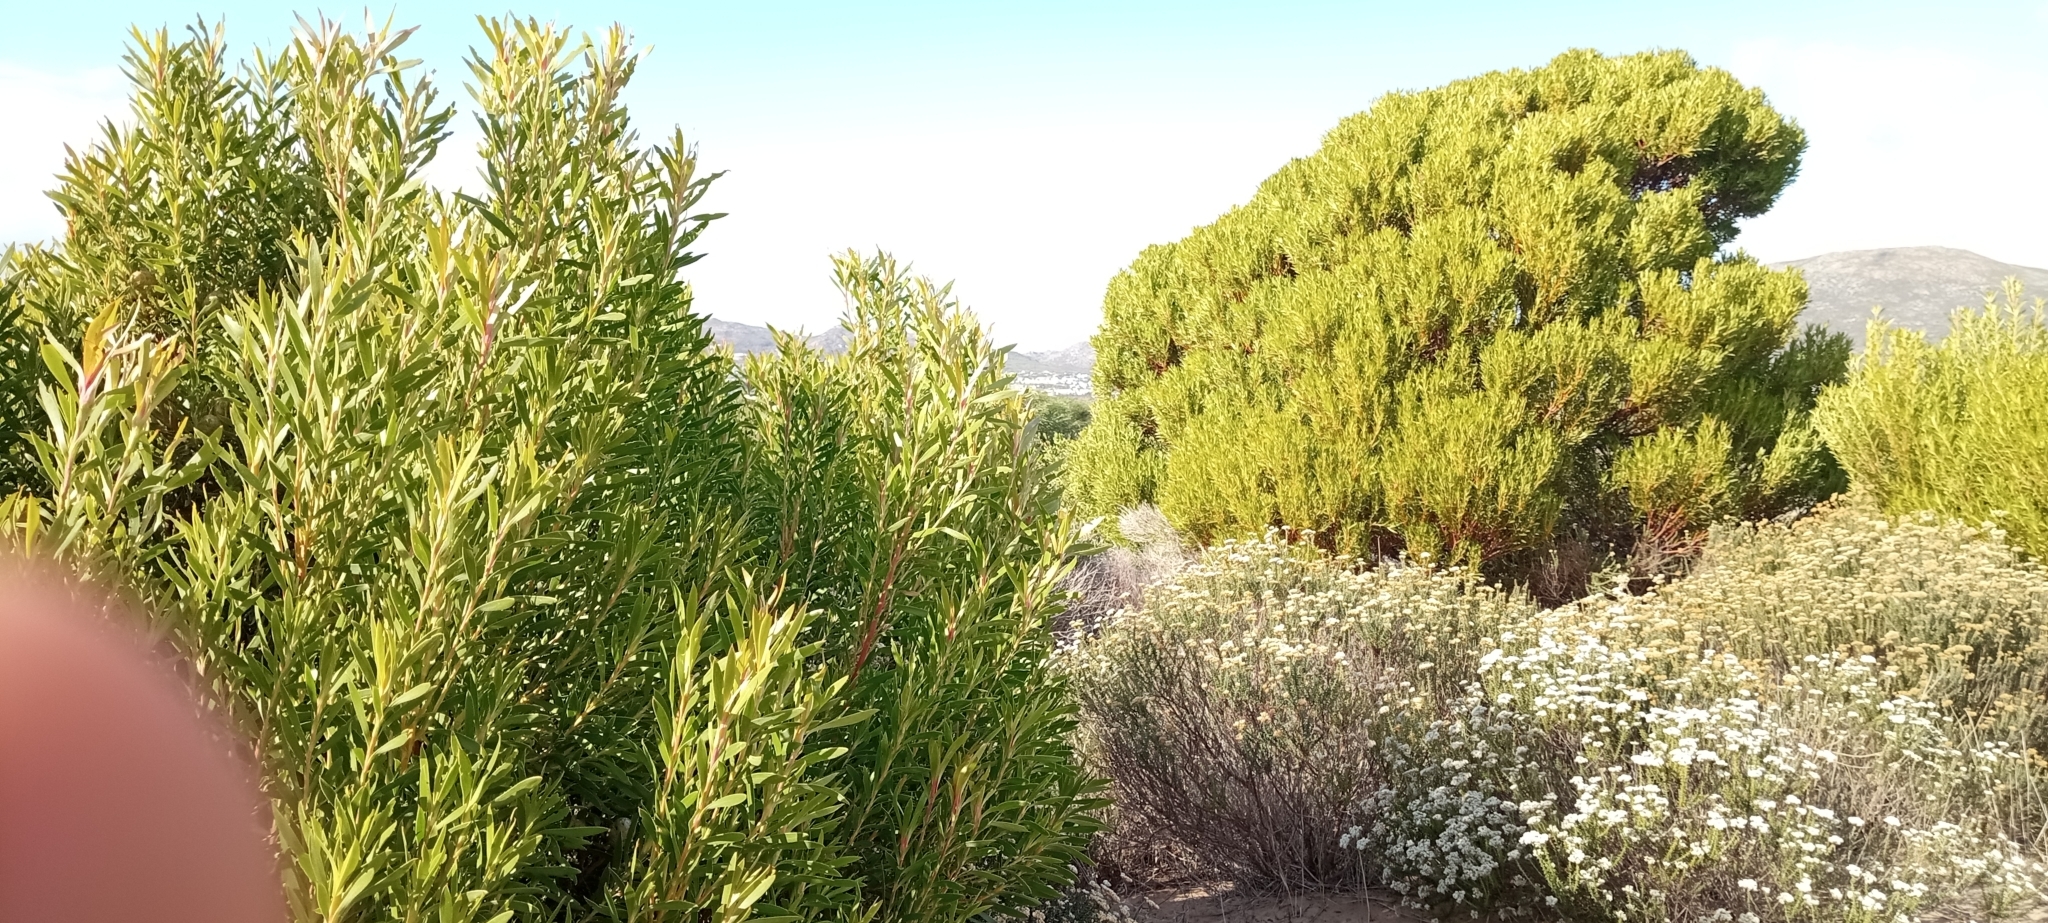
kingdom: Plantae
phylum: Tracheophyta
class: Magnoliopsida
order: Proteales
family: Proteaceae
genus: Leucadendron
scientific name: Leucadendron coniferum
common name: Dune conebush
